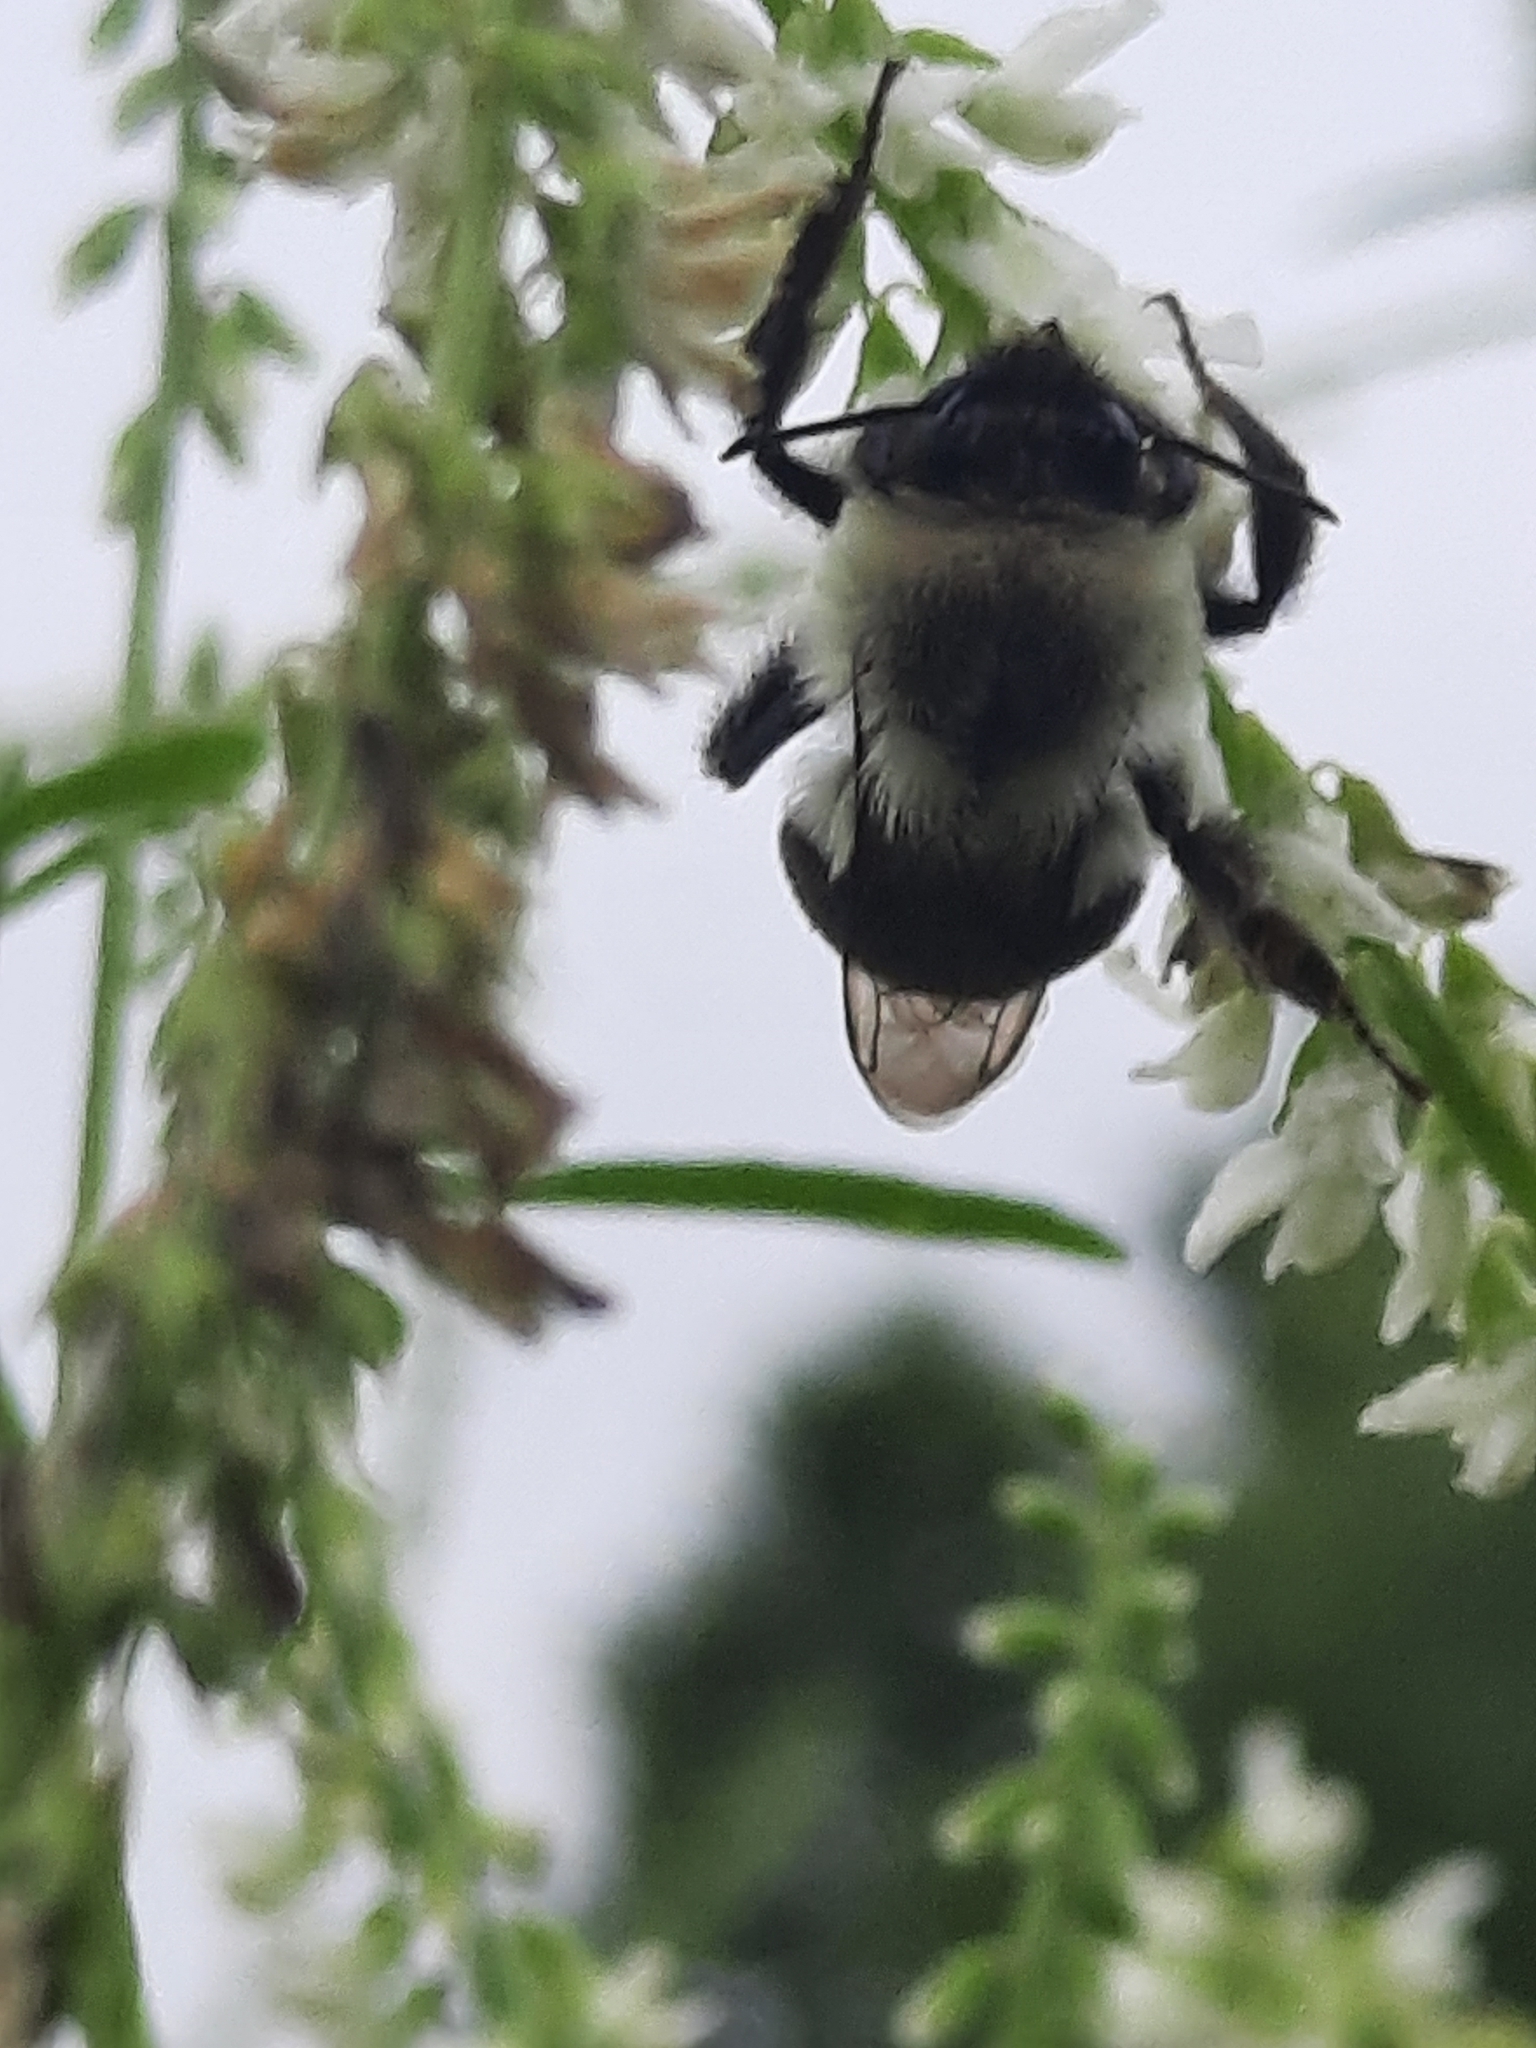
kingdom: Animalia
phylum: Arthropoda
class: Insecta
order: Hymenoptera
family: Apidae
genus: Bombus
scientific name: Bombus impatiens
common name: Common eastern bumble bee
